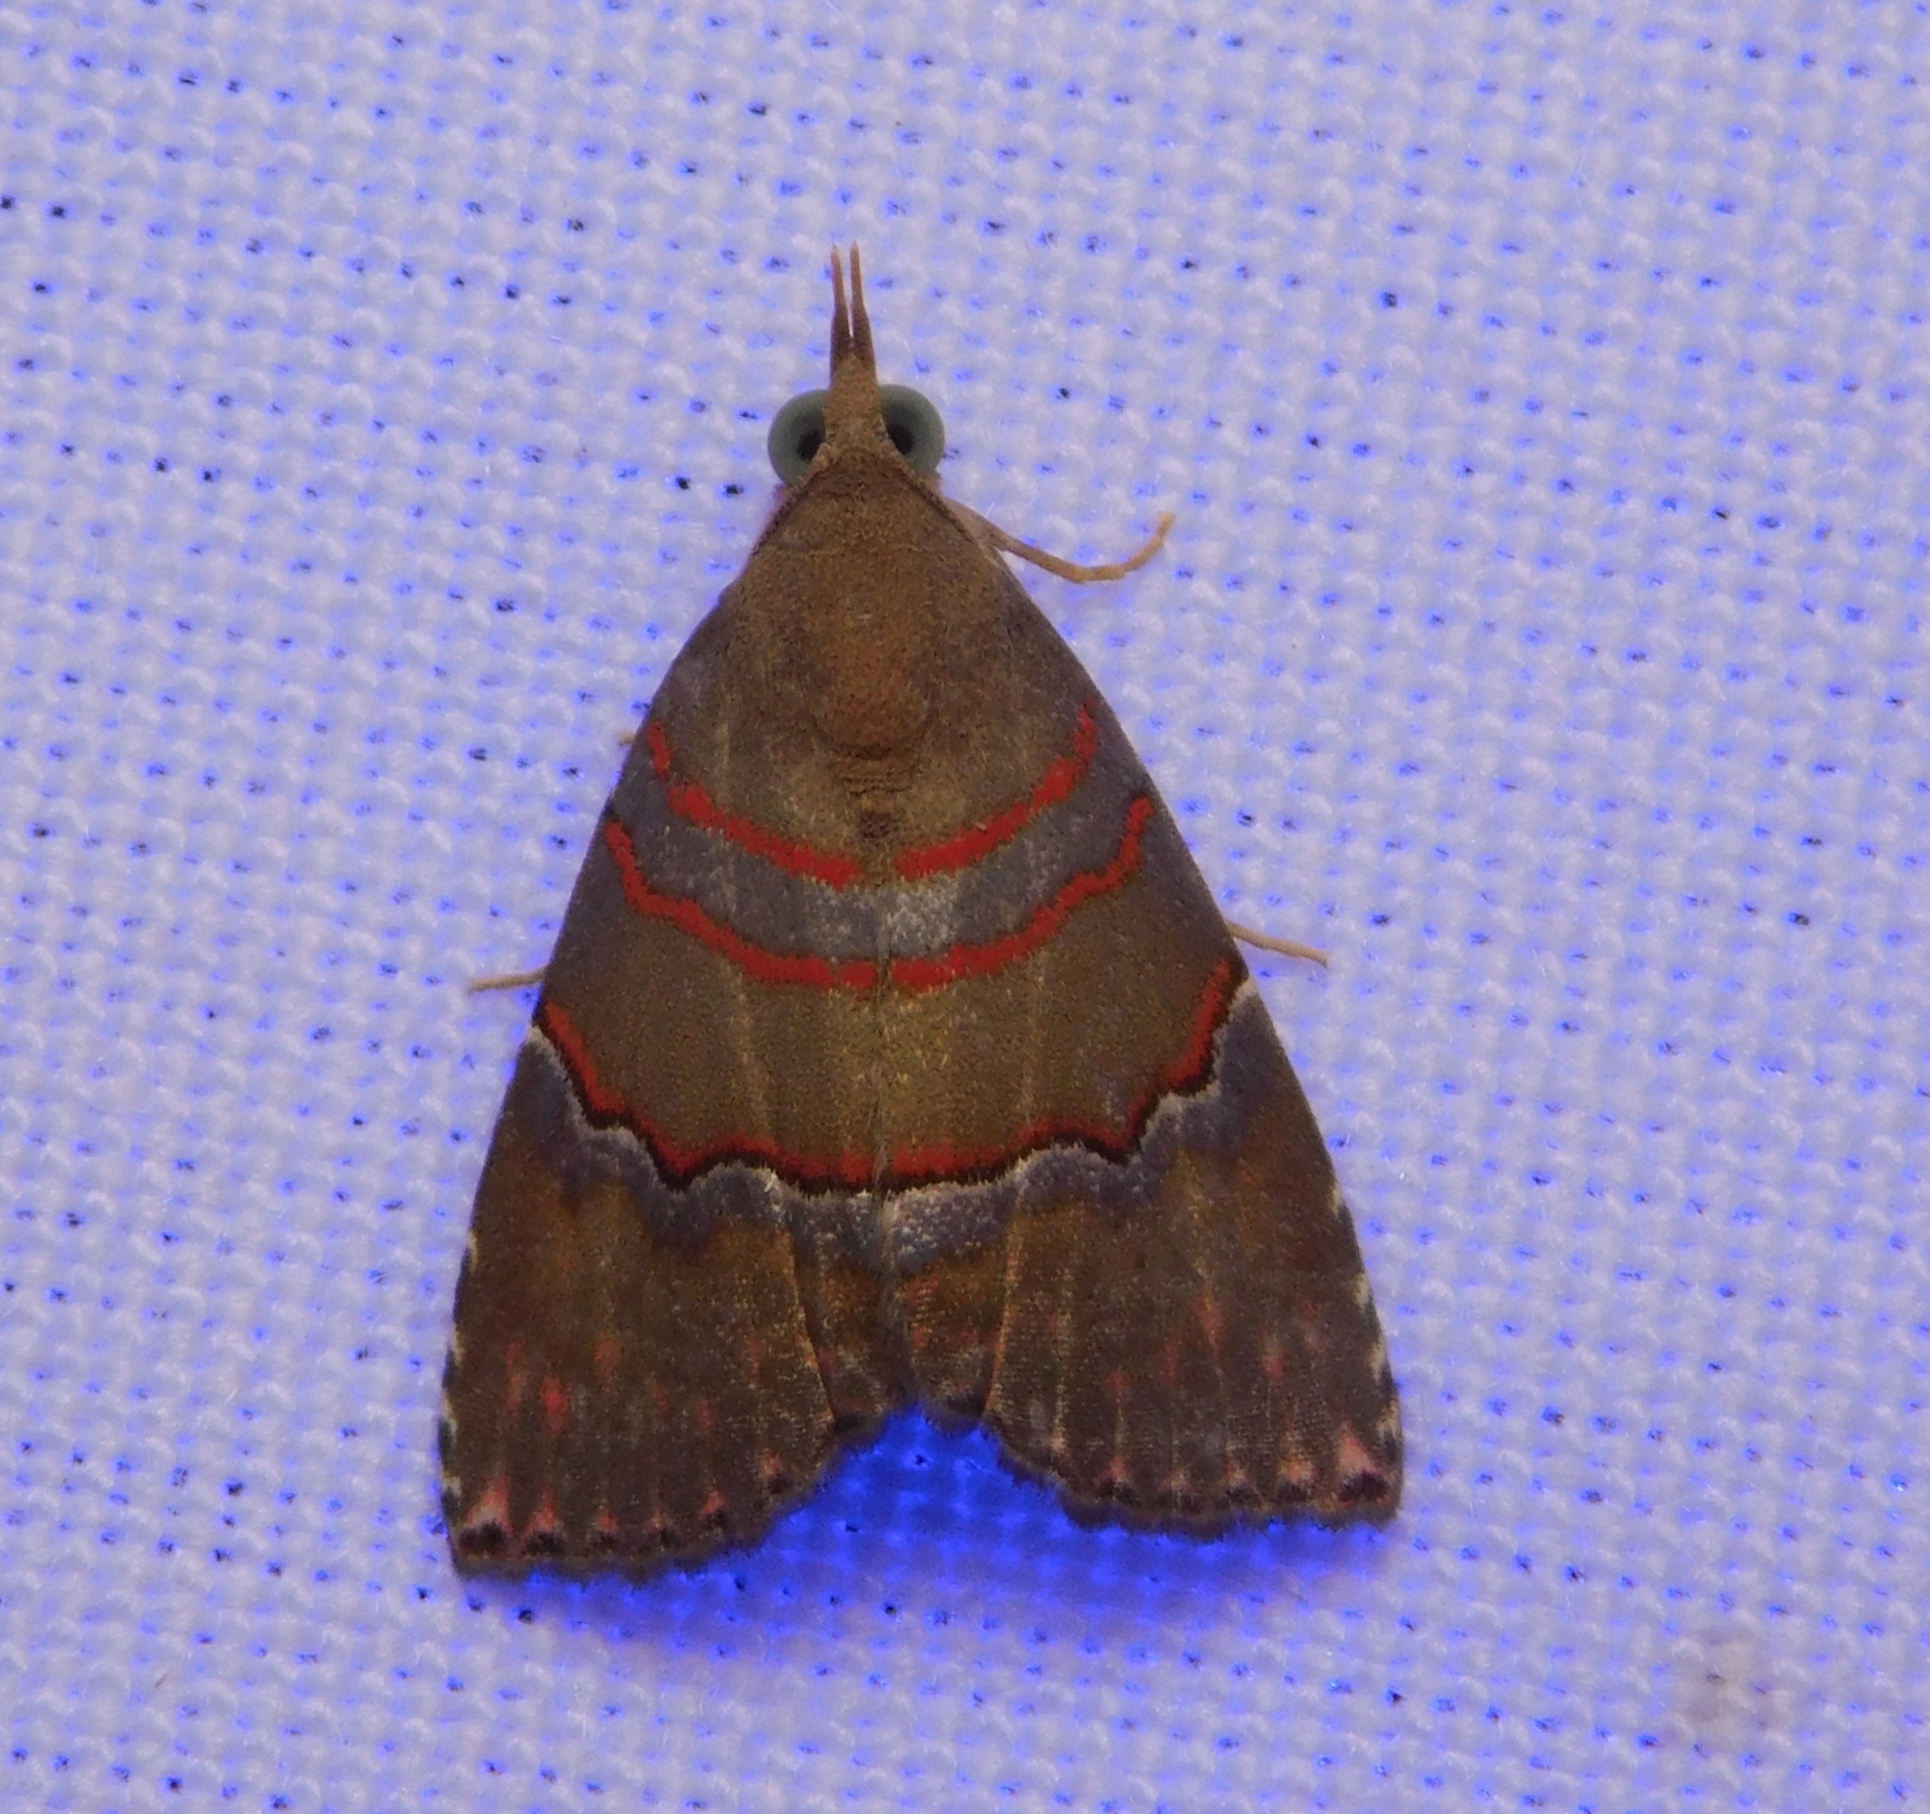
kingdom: Animalia
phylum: Arthropoda
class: Insecta
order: Lepidoptera
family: Erebidae
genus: Nolasena
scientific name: Nolasena ferrifervens
